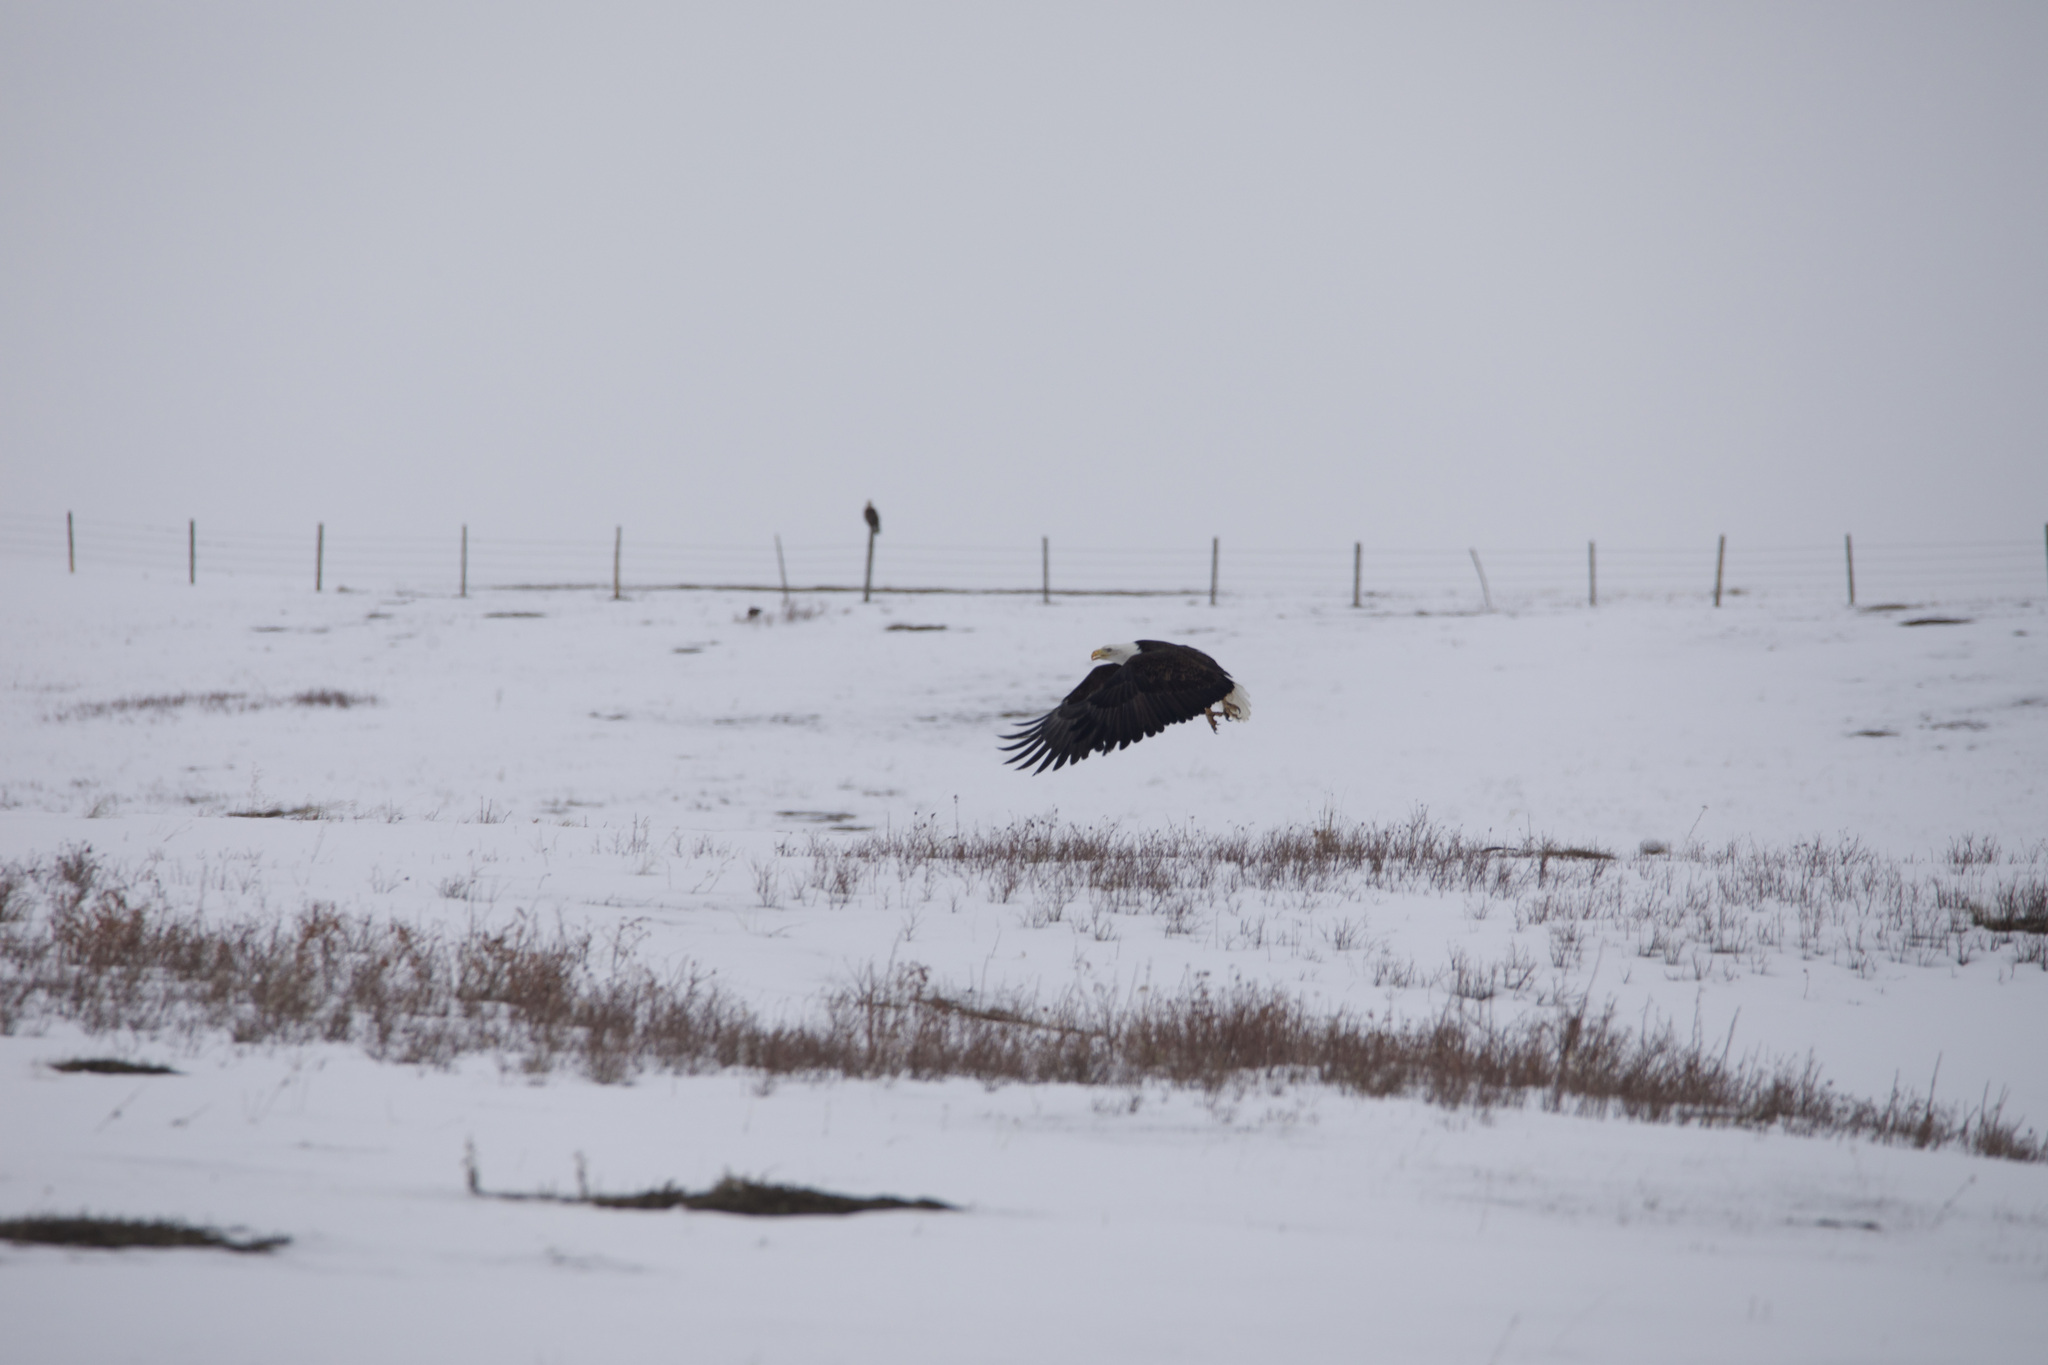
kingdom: Animalia
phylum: Chordata
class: Aves
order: Accipitriformes
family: Accipitridae
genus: Haliaeetus
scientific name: Haliaeetus leucocephalus
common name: Bald eagle
